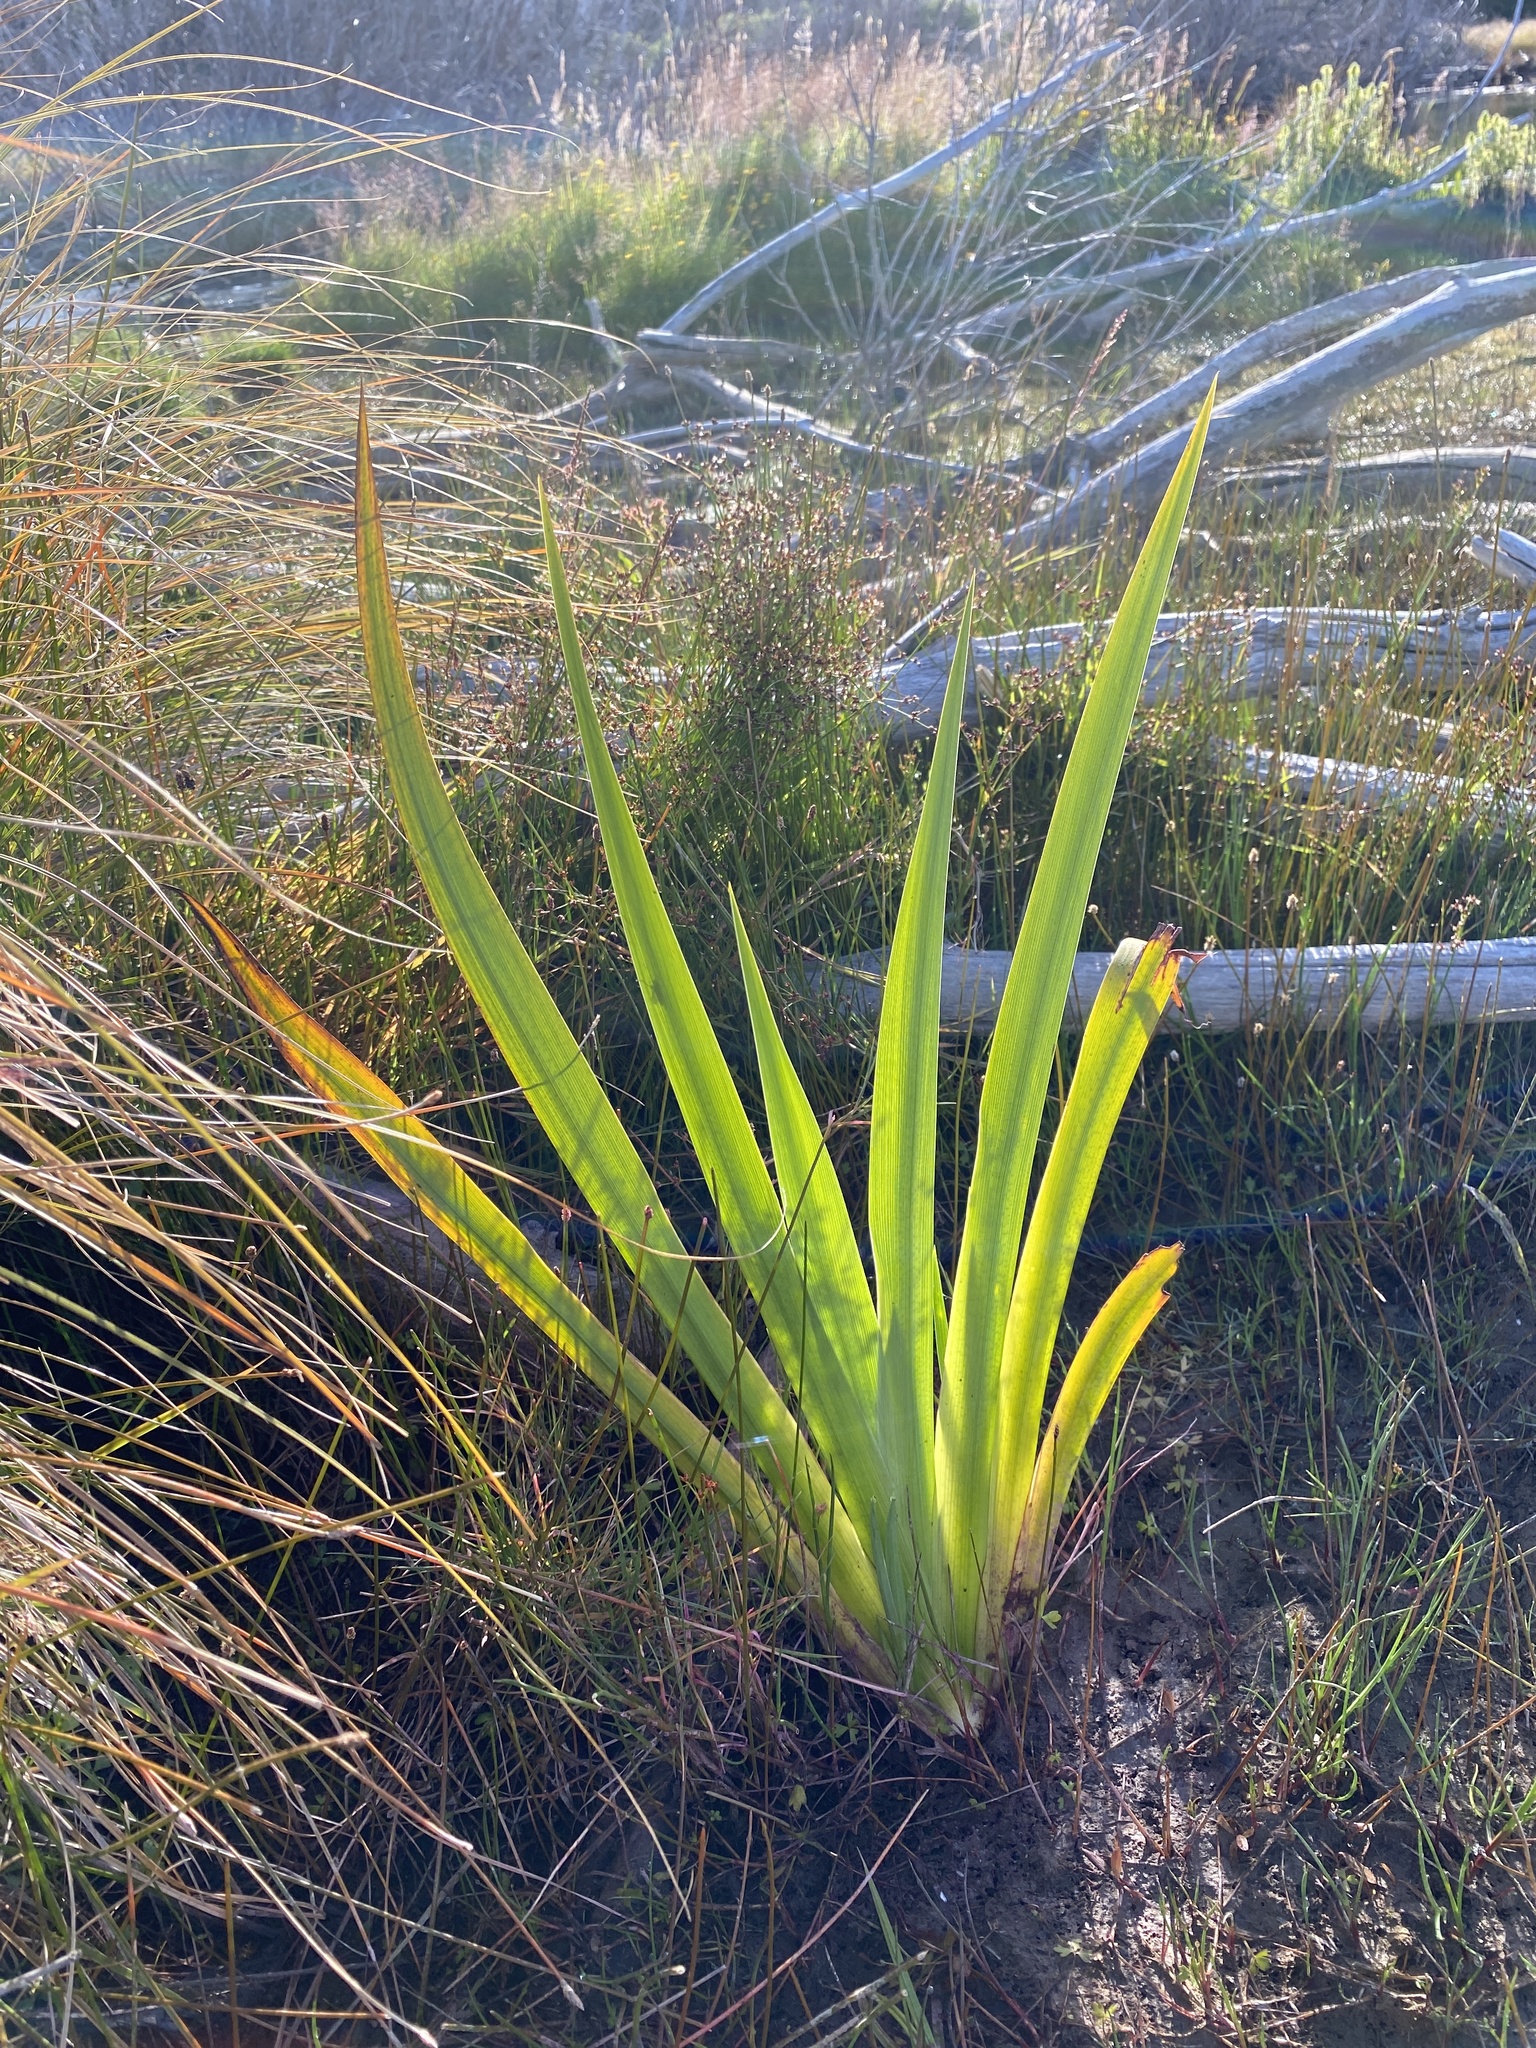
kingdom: Plantae
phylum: Tracheophyta
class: Liliopsida
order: Poales
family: Typhaceae
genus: Typha
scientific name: Typha orientalis
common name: Bullrush
